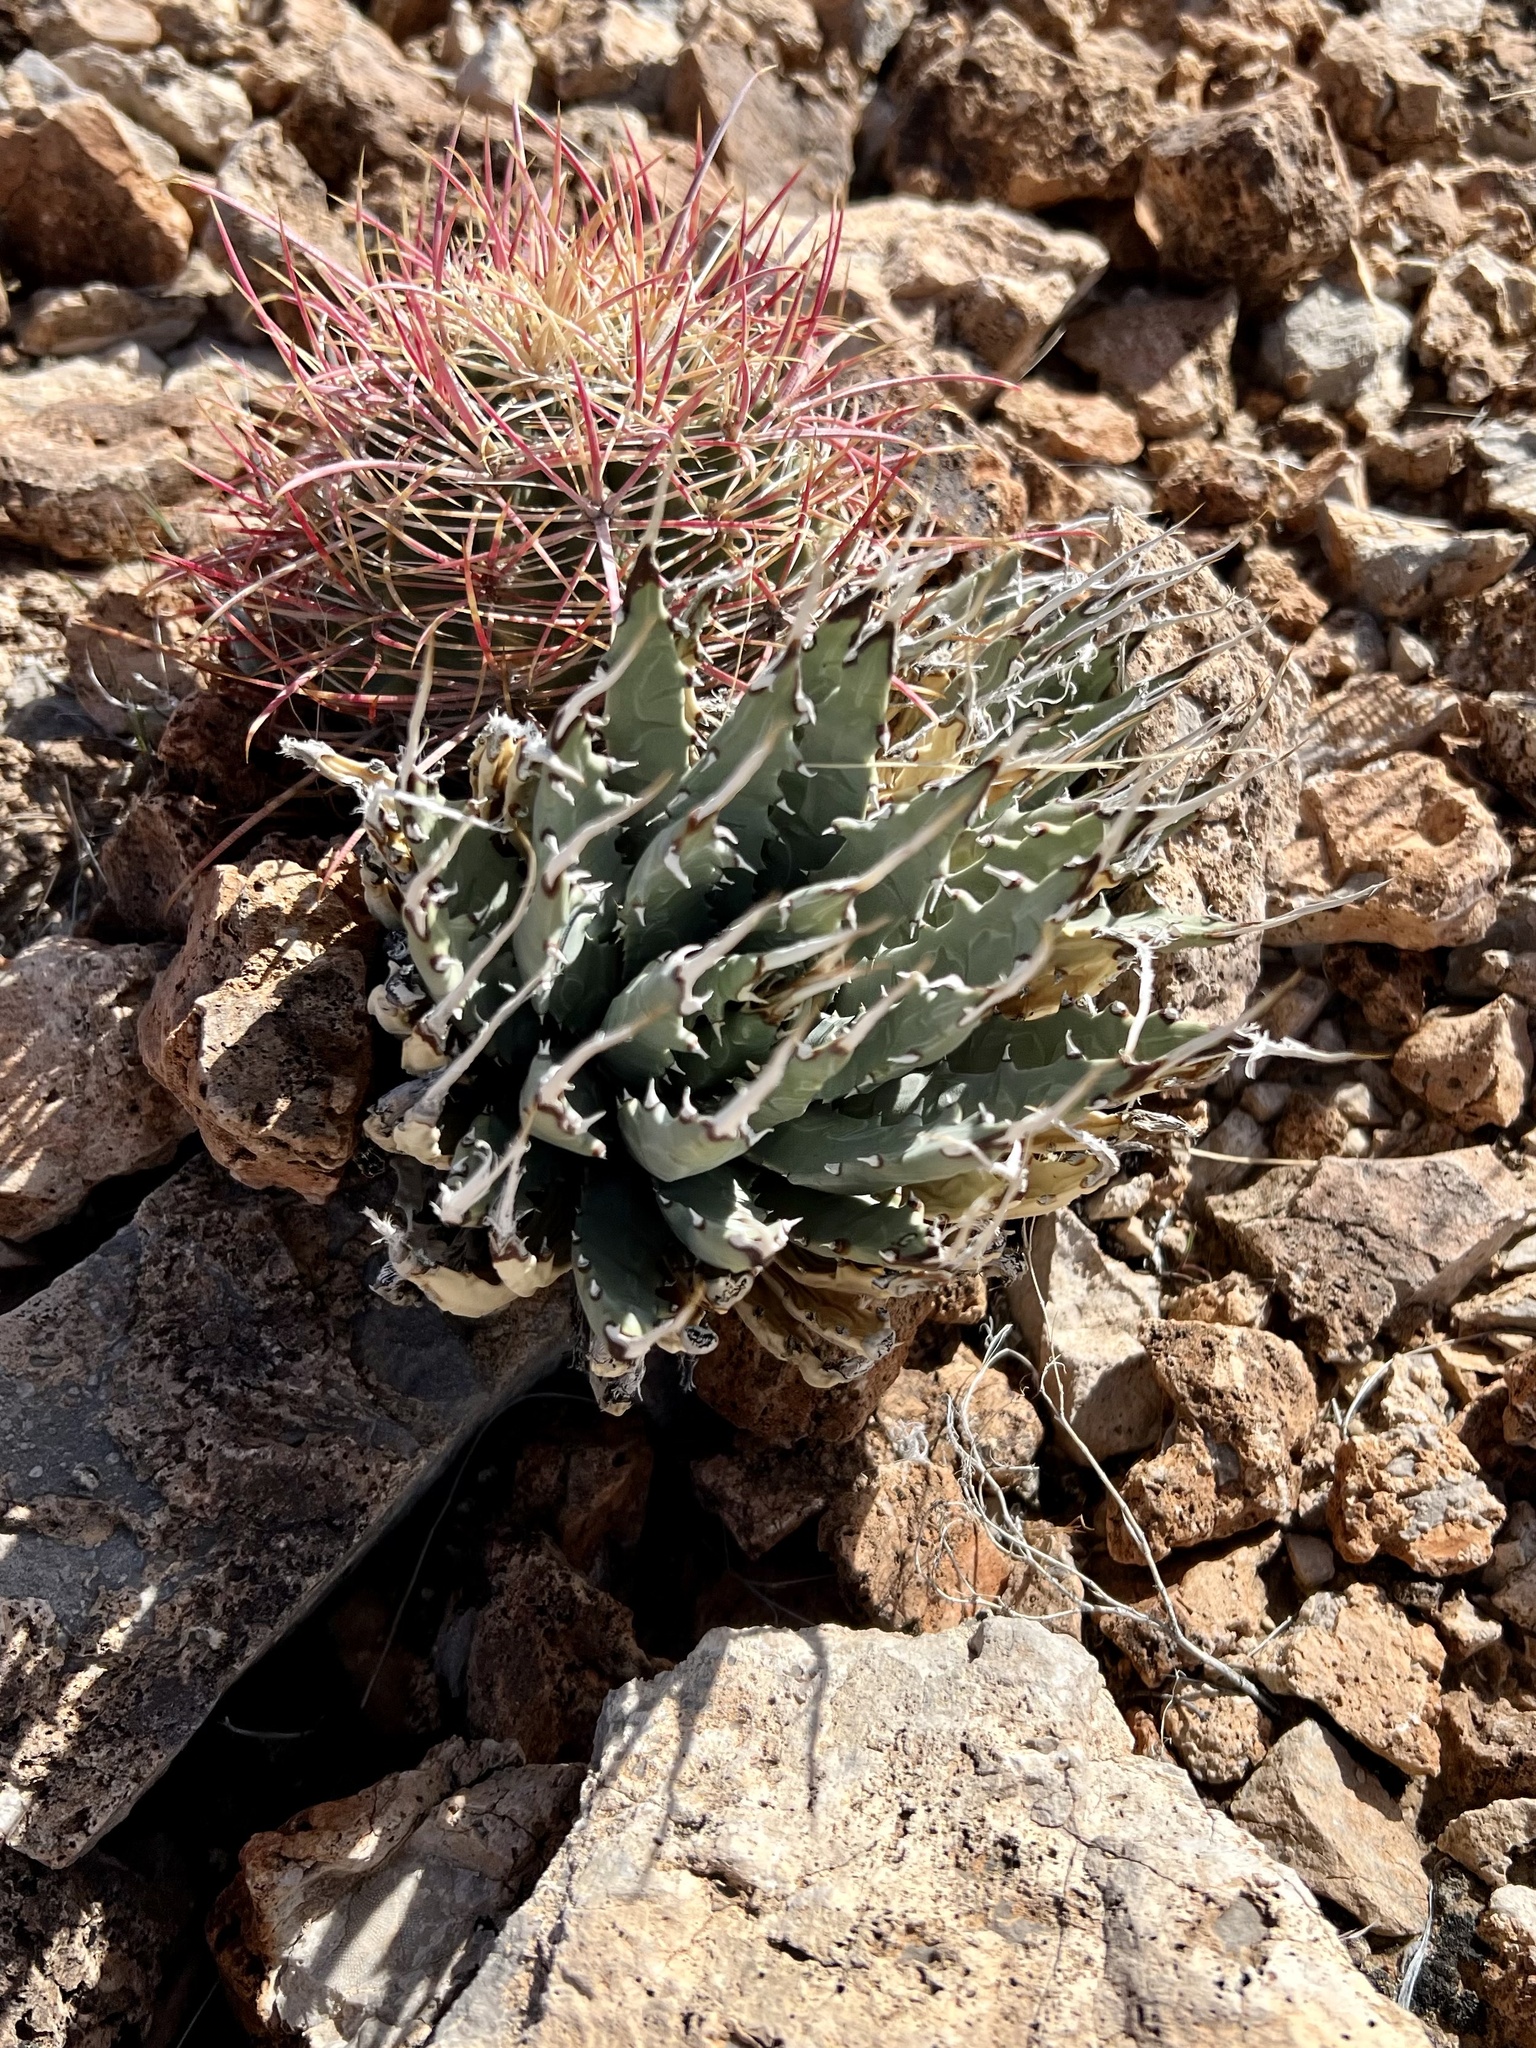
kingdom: Plantae
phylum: Tracheophyta
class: Liliopsida
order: Asparagales
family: Asparagaceae
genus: Agave
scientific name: Agave utahensis
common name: Utah agave
